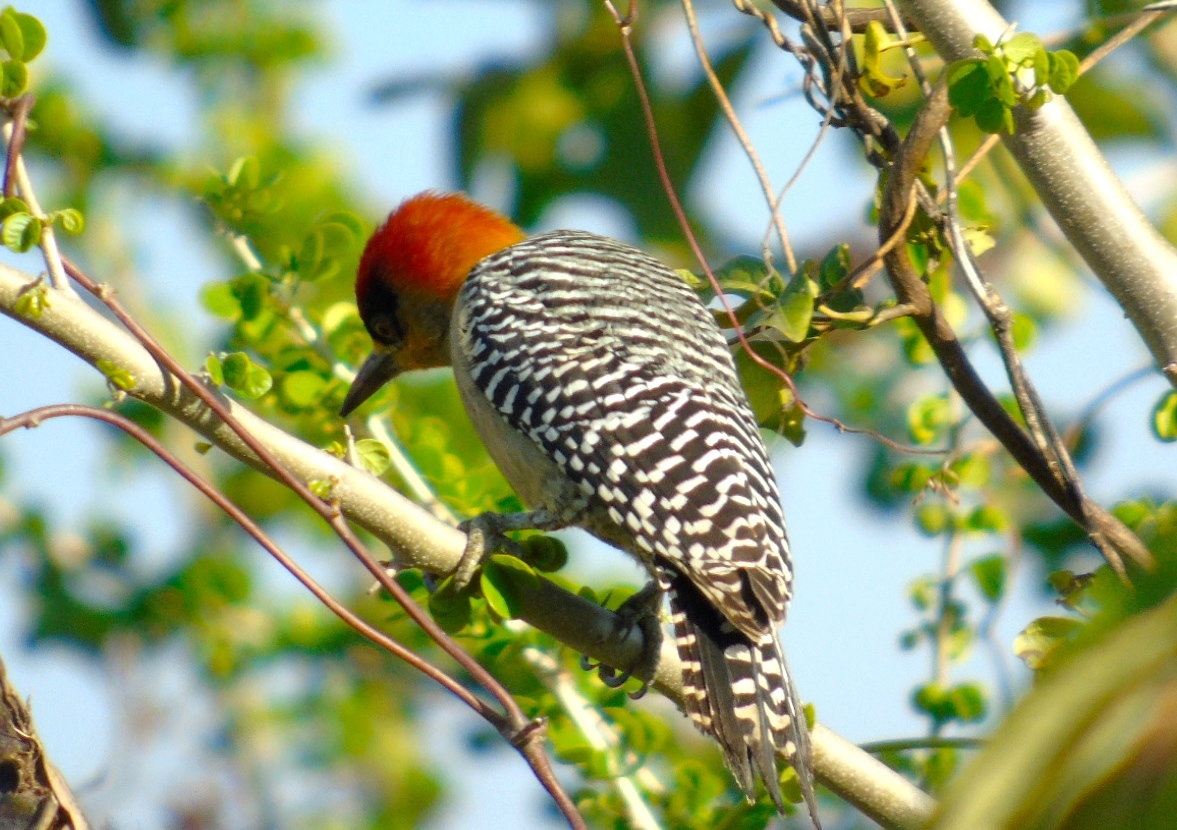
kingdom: Animalia
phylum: Chordata
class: Aves
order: Piciformes
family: Picidae
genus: Melanerpes
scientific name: Melanerpes chrysogenys
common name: Golden-cheeked woodpecker
